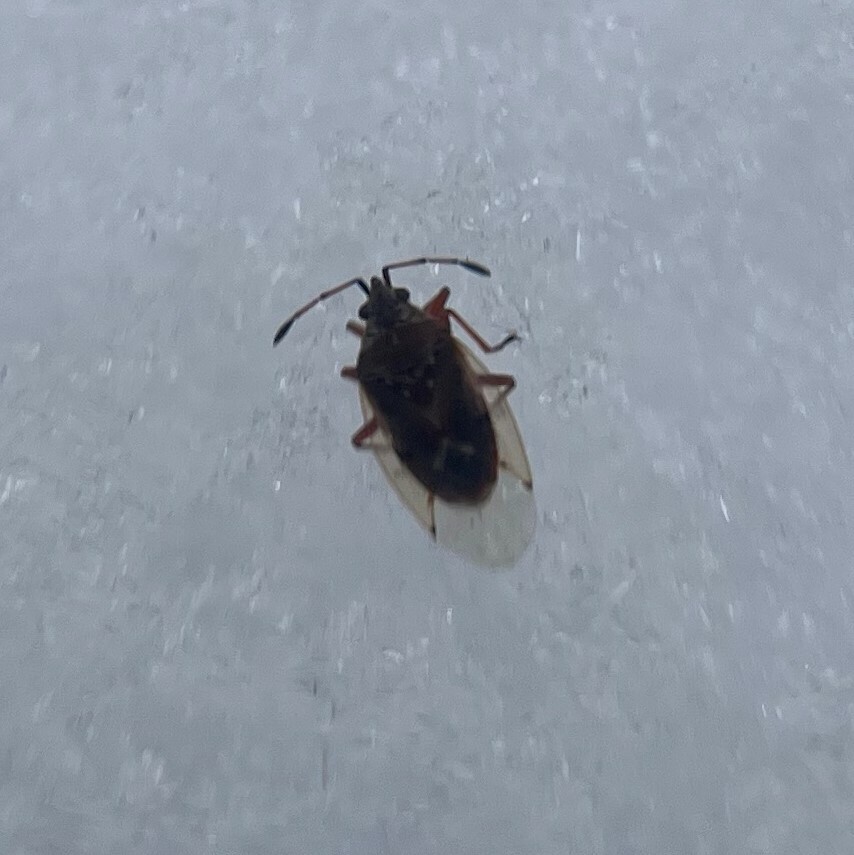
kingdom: Animalia
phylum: Arthropoda
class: Insecta
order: Hemiptera
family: Lygaeidae
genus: Kleidocerys
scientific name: Kleidocerys resedae
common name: Birch catkin bug
